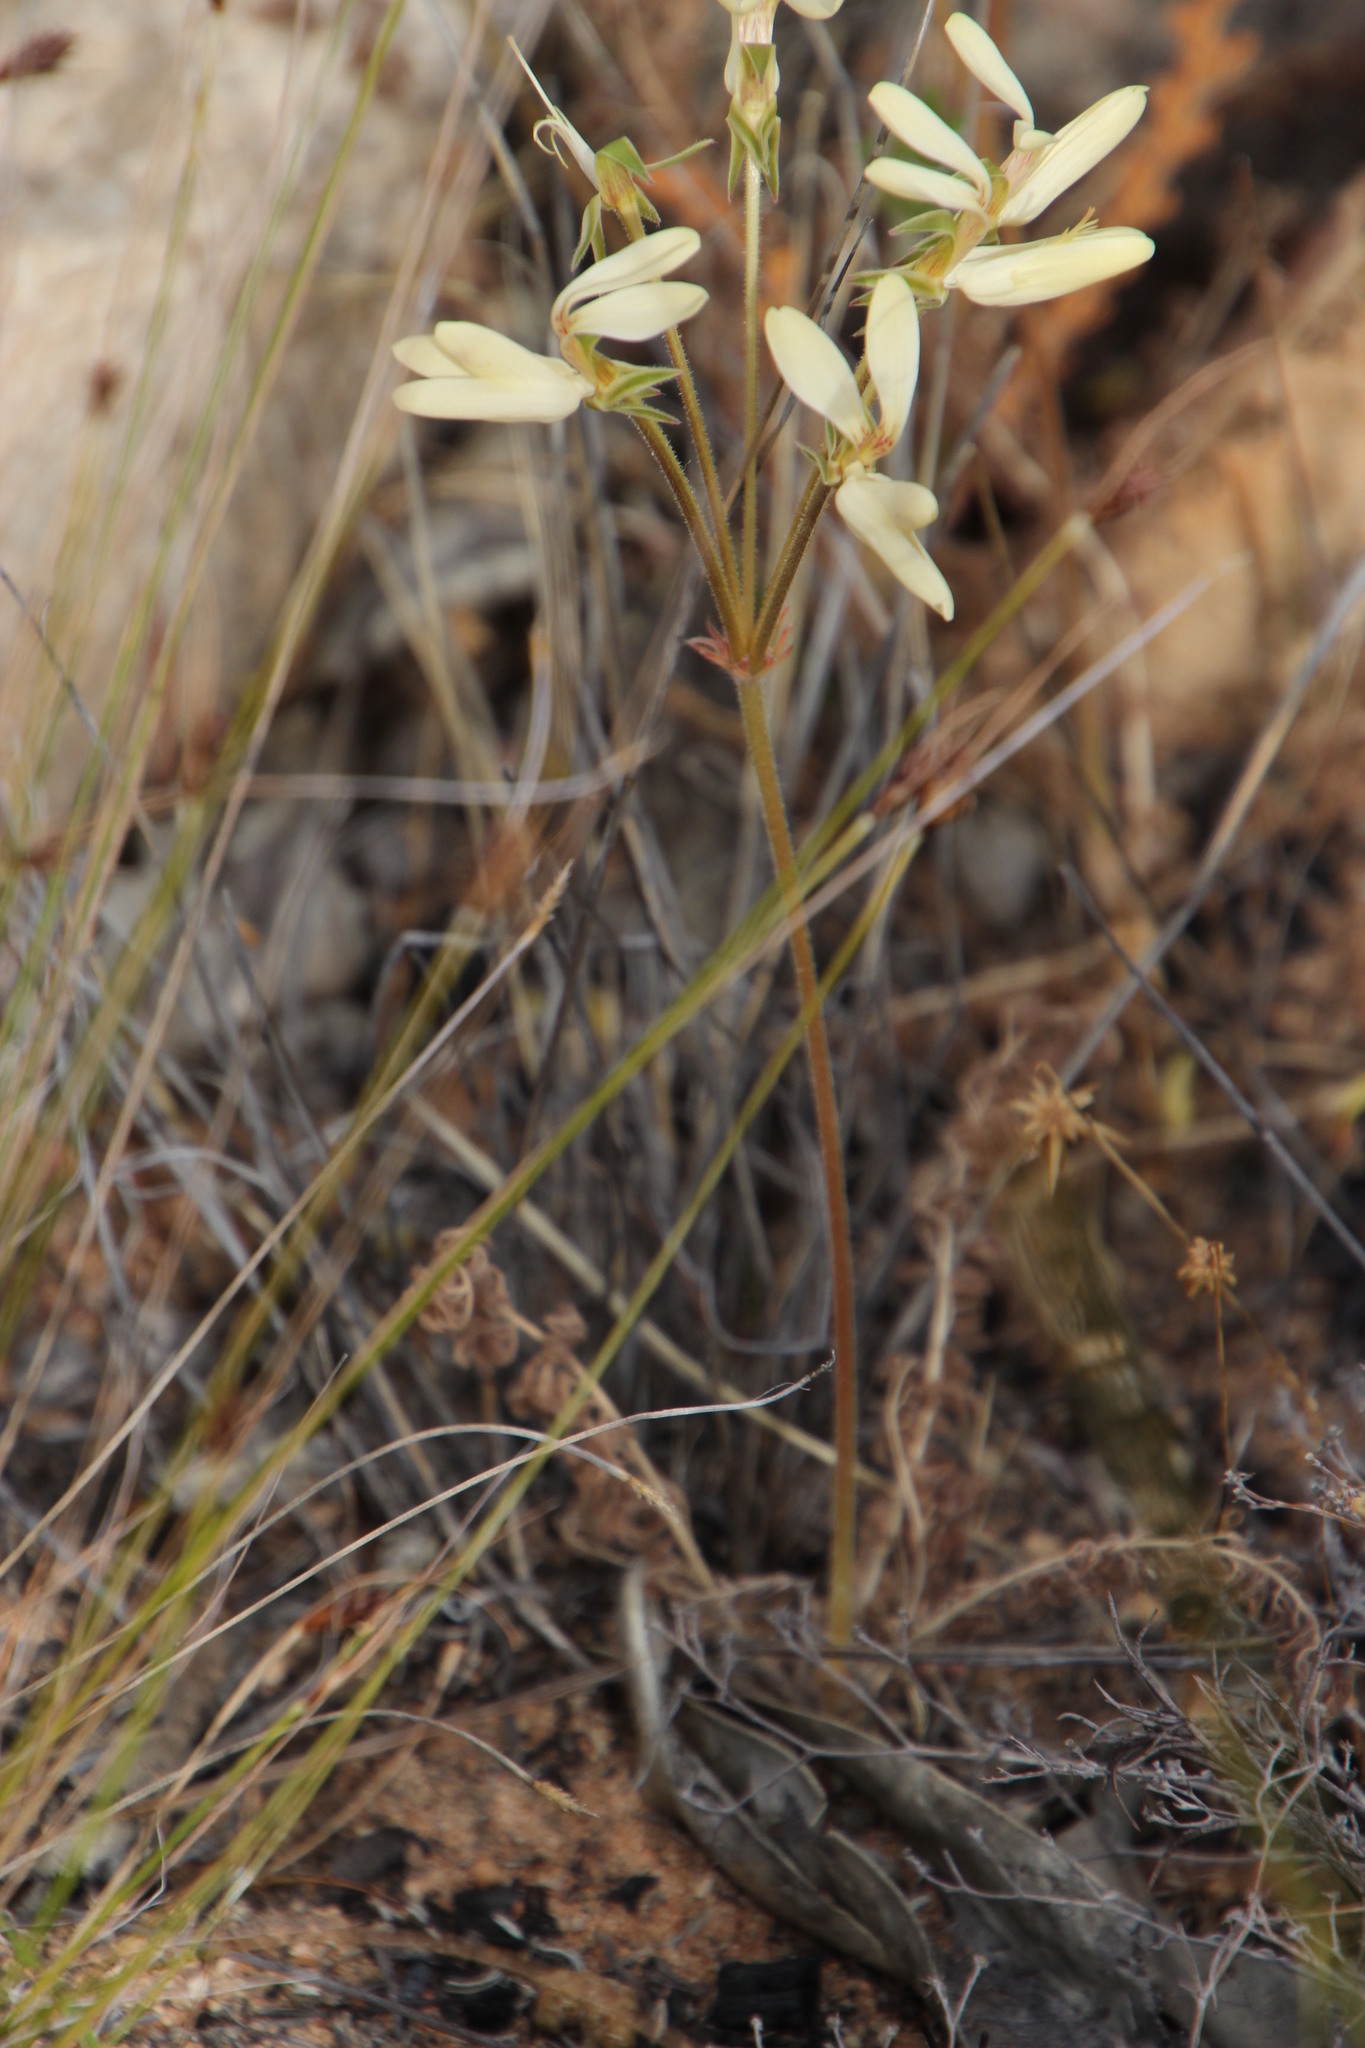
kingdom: Plantae
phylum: Tracheophyta
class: Magnoliopsida
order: Geraniales
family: Geraniaceae
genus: Pelargonium
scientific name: Pelargonium rapaceum
